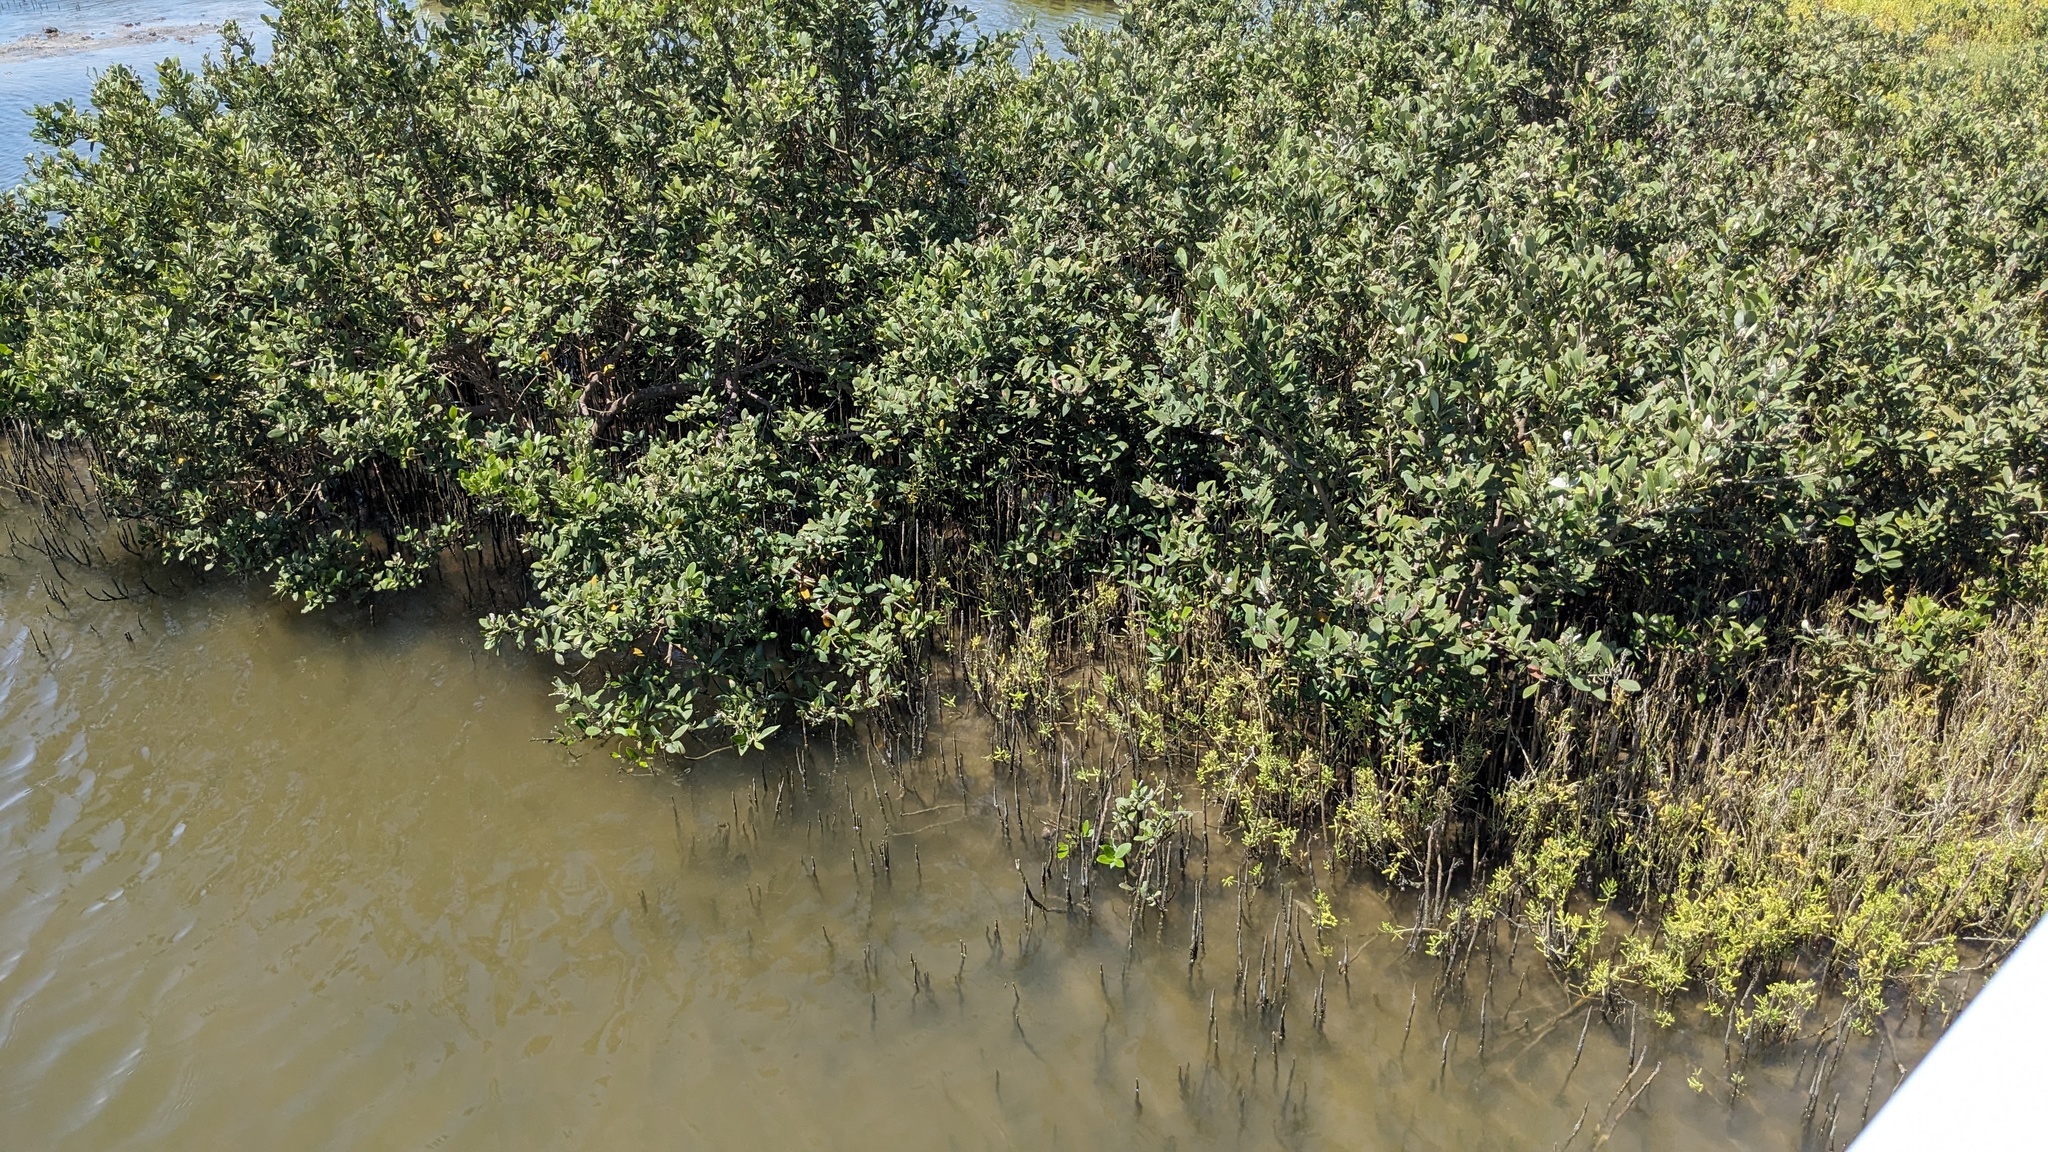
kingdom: Plantae
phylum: Tracheophyta
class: Magnoliopsida
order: Lamiales
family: Acanthaceae
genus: Avicennia
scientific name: Avicennia germinans
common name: Black mangrove
